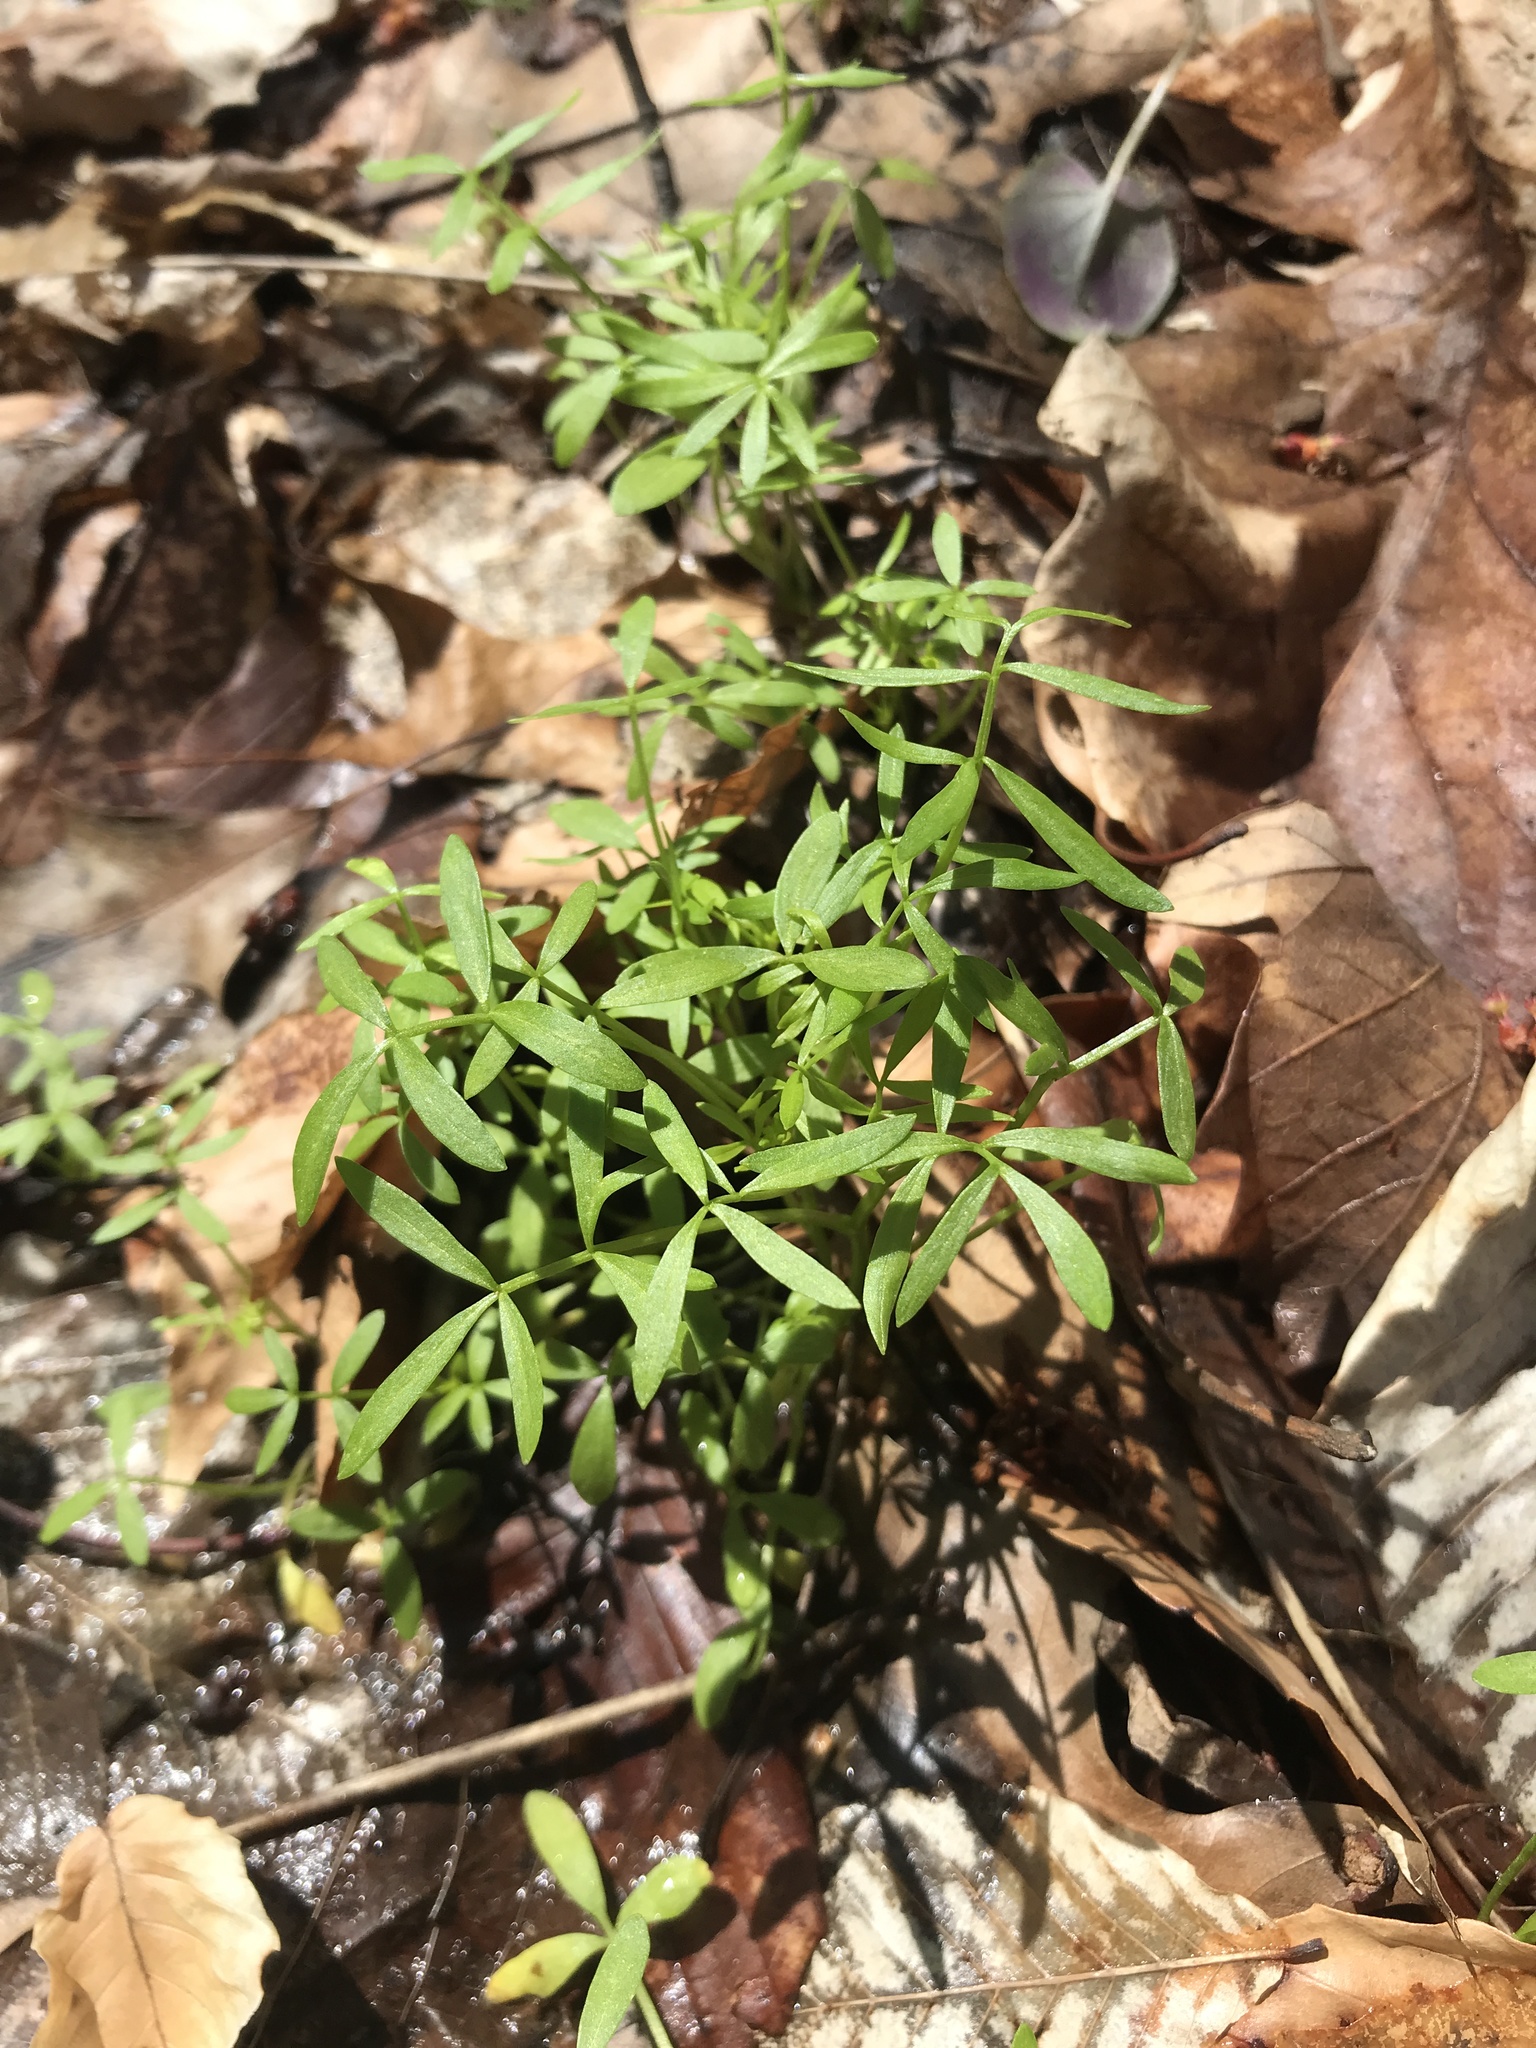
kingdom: Plantae
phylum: Tracheophyta
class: Magnoliopsida
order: Brassicales
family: Limnanthaceae
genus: Floerkea
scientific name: Floerkea proserpinacoides
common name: False mermaid
